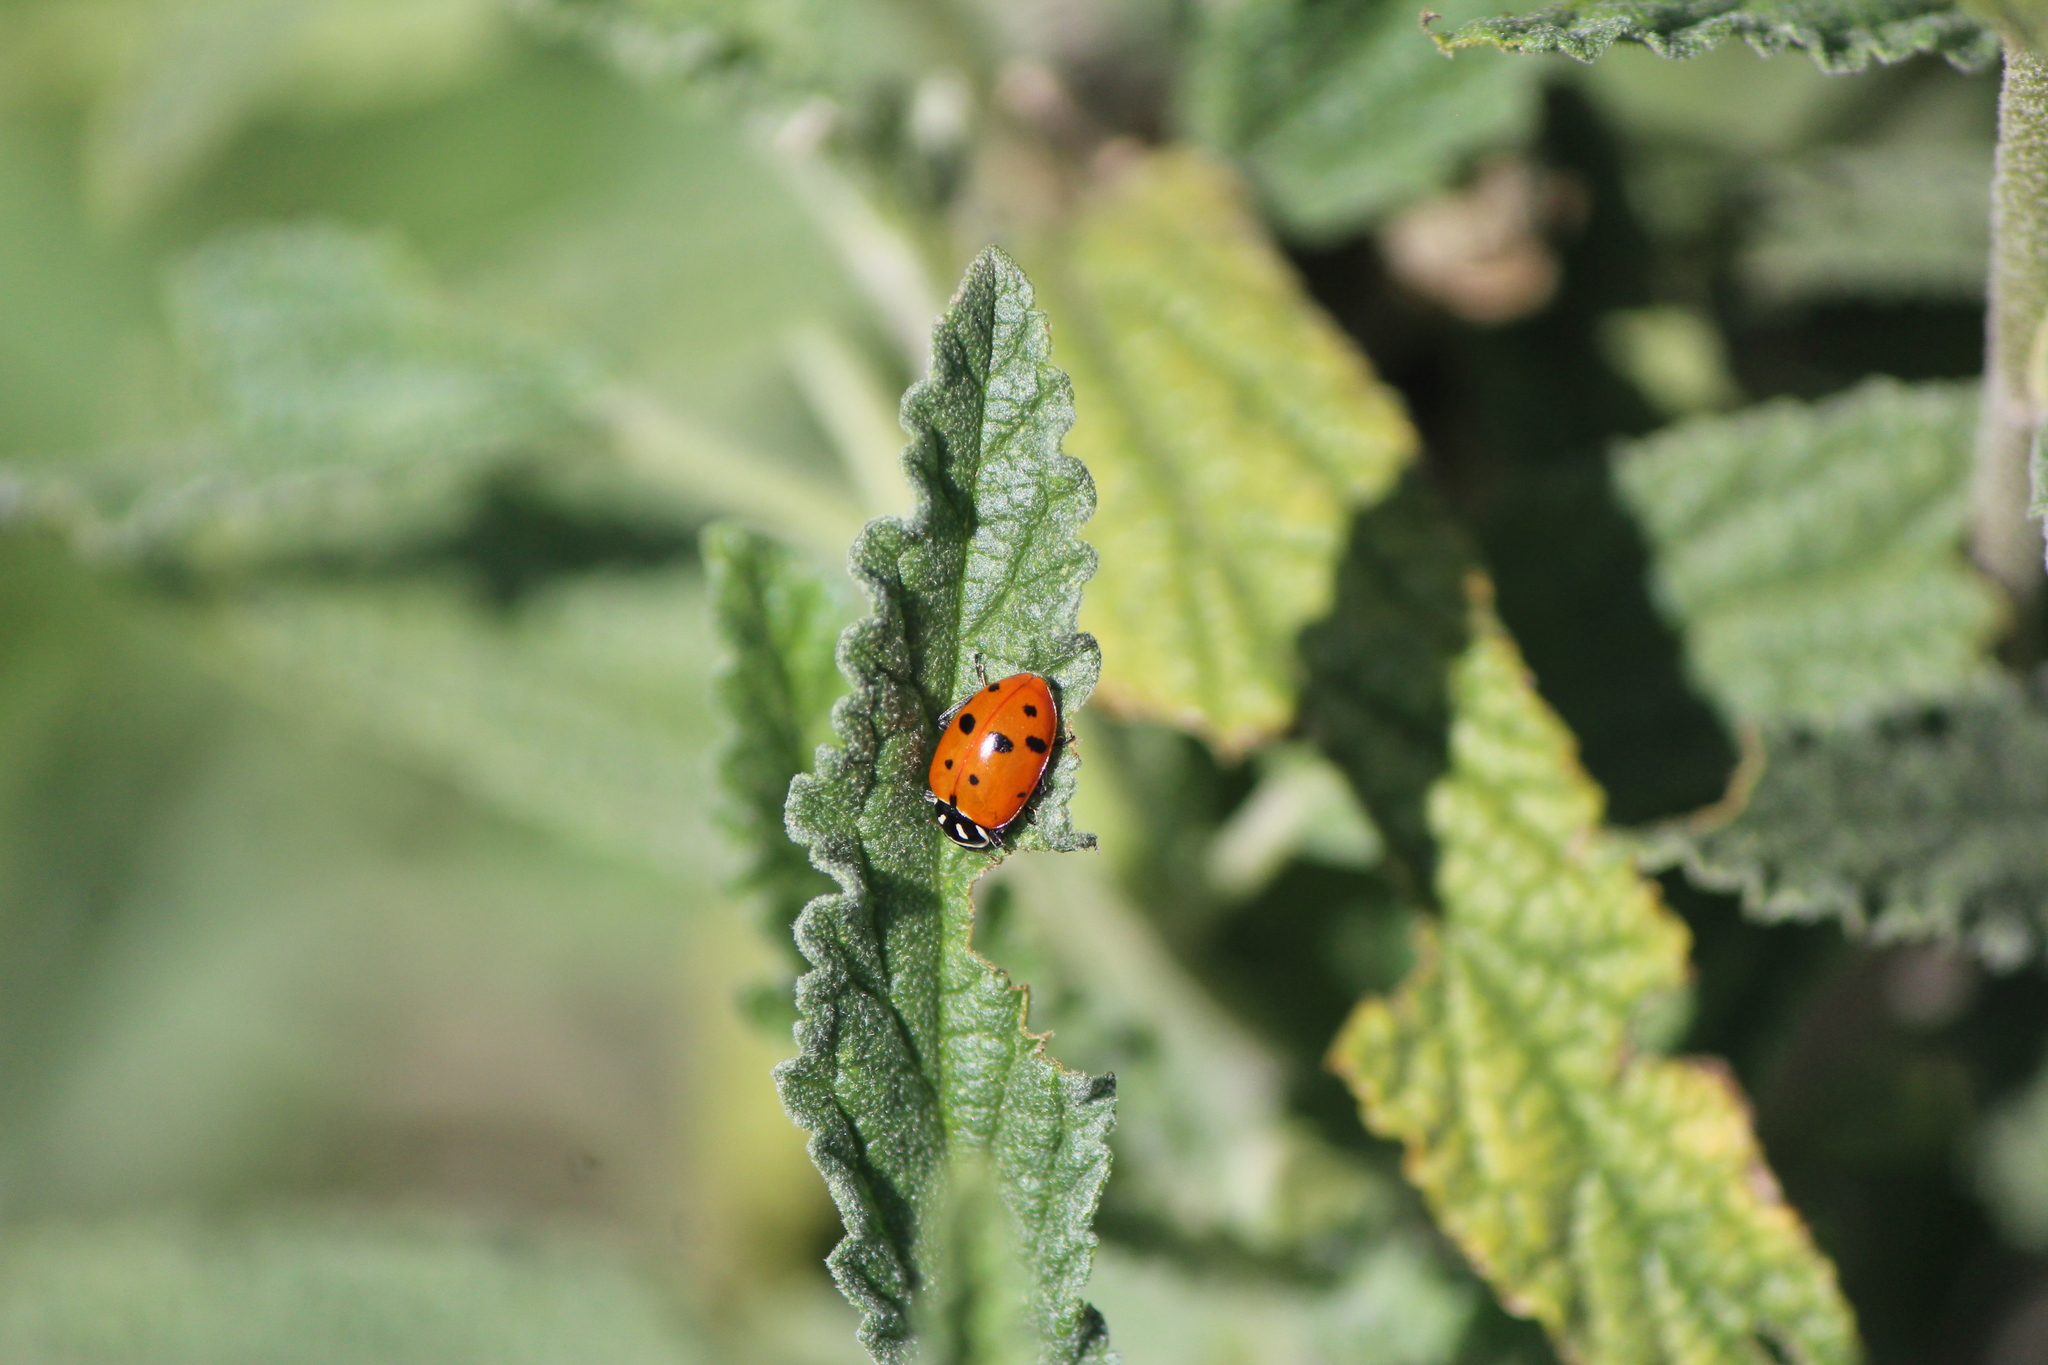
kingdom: Animalia
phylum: Arthropoda
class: Insecta
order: Coleoptera
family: Coccinellidae
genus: Hippodamia
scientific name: Hippodamia convergens
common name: Convergent lady beetle
